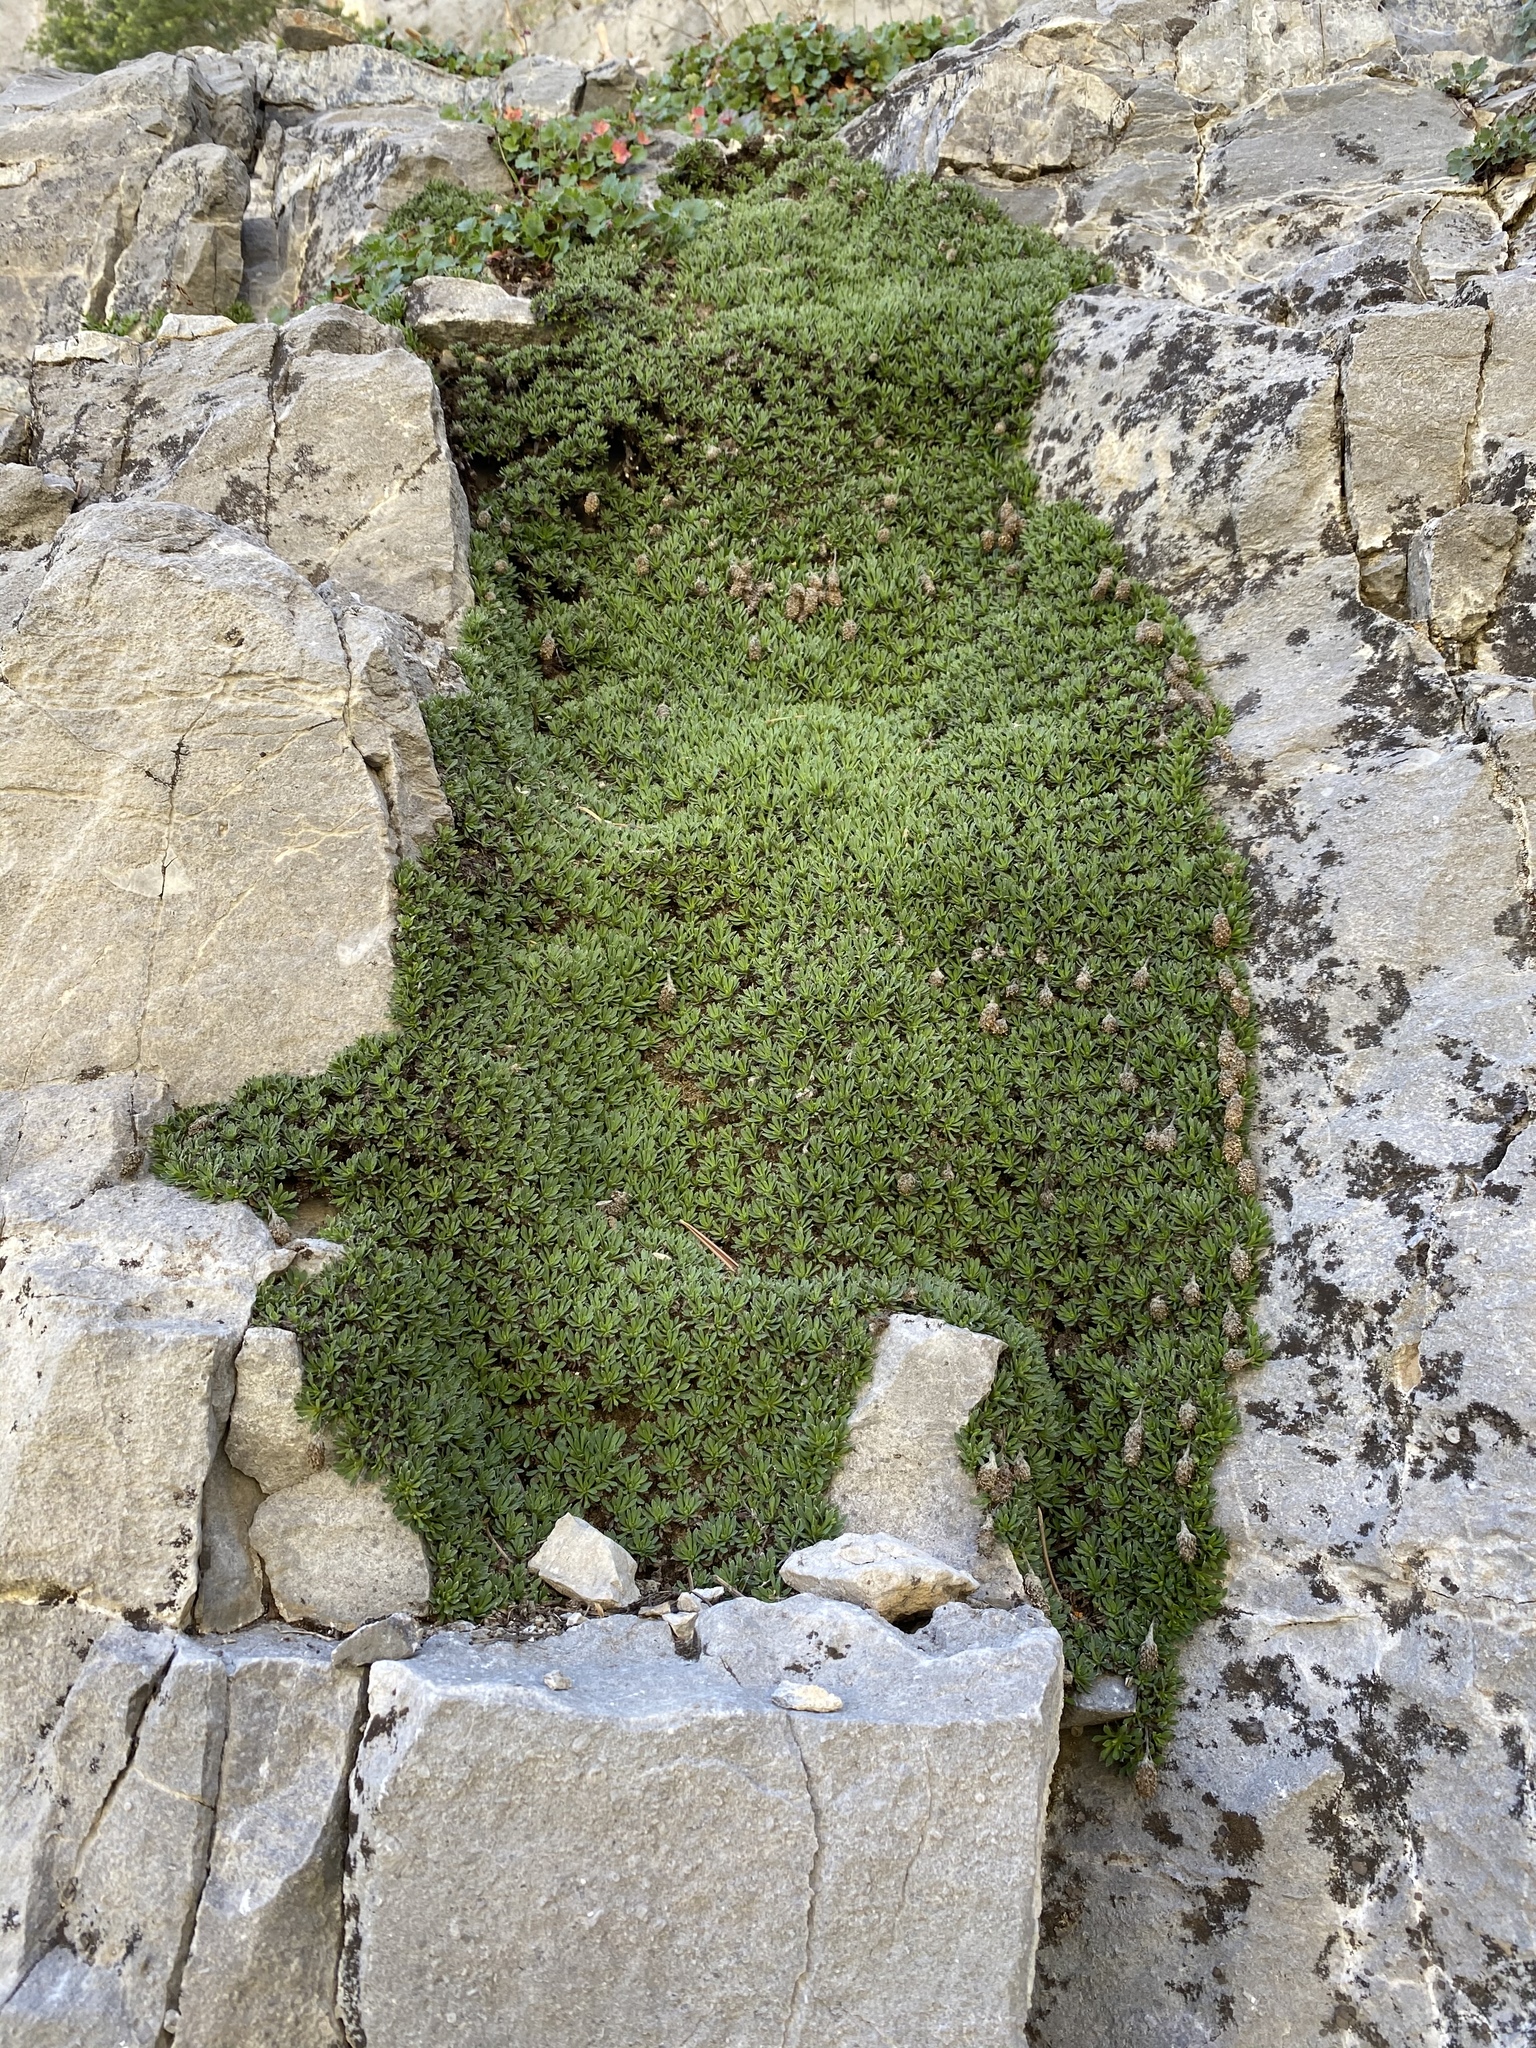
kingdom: Plantae
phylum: Tracheophyta
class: Magnoliopsida
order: Rosales
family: Rosaceae
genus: Petrophytum
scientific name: Petrophytum caespitosum
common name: Mat rockspirea
